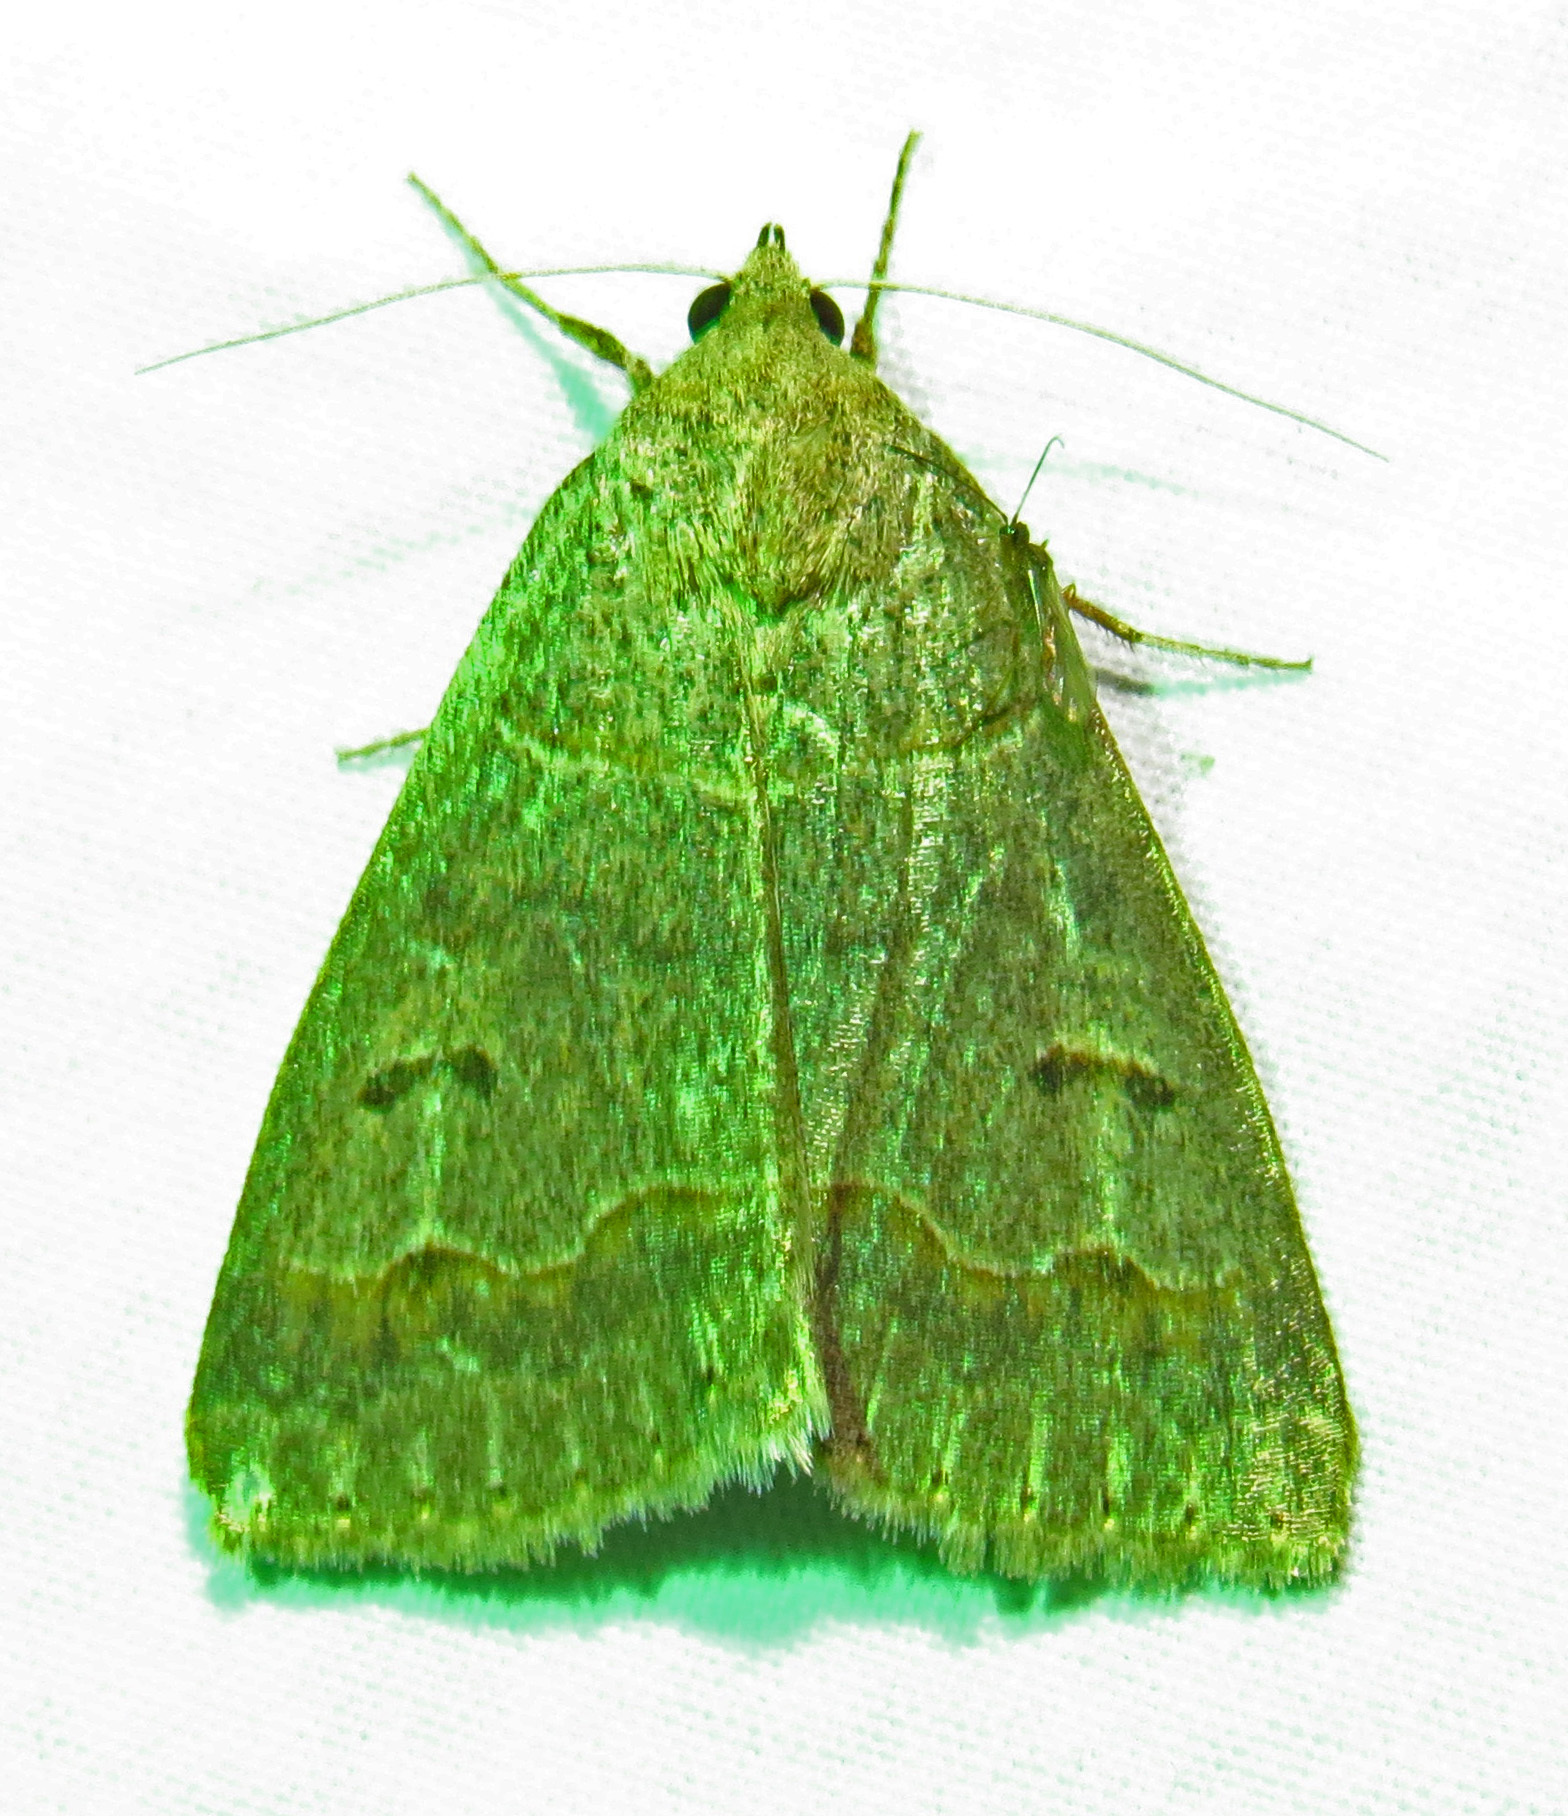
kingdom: Animalia
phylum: Arthropoda
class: Insecta
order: Lepidoptera
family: Erebidae
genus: Phoberia
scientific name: Phoberia atomaris
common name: Common oak moth
